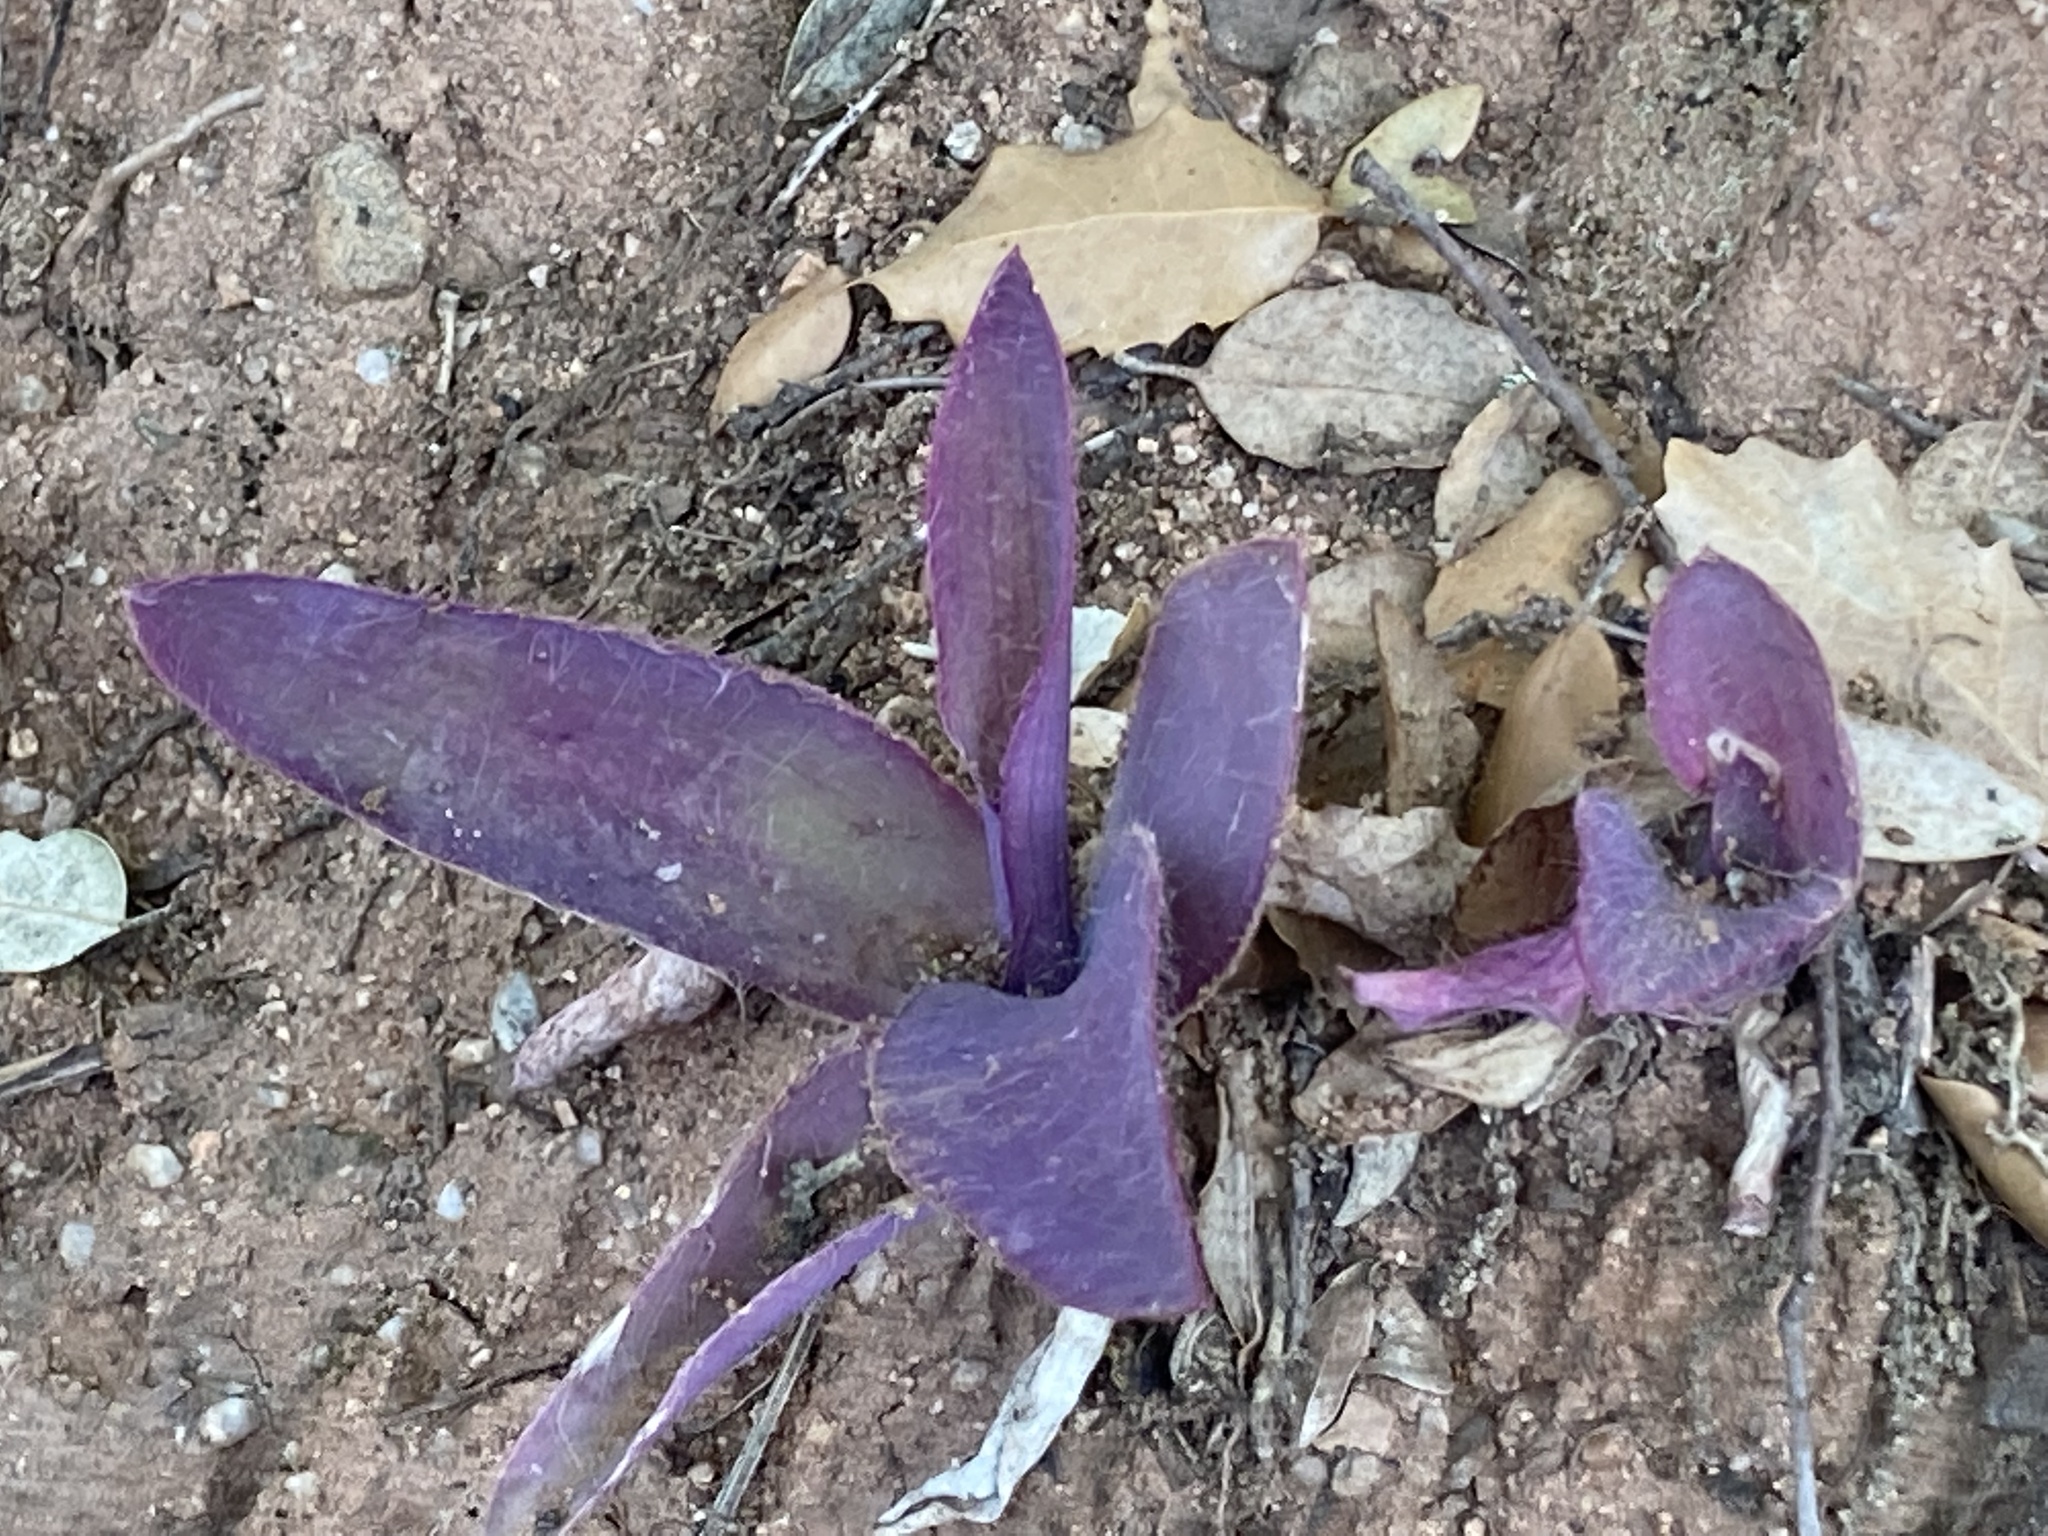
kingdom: Plantae
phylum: Tracheophyta
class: Liliopsida
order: Commelinales
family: Commelinaceae
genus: Tradescantia
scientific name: Tradescantia pallida
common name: Purpleheart
